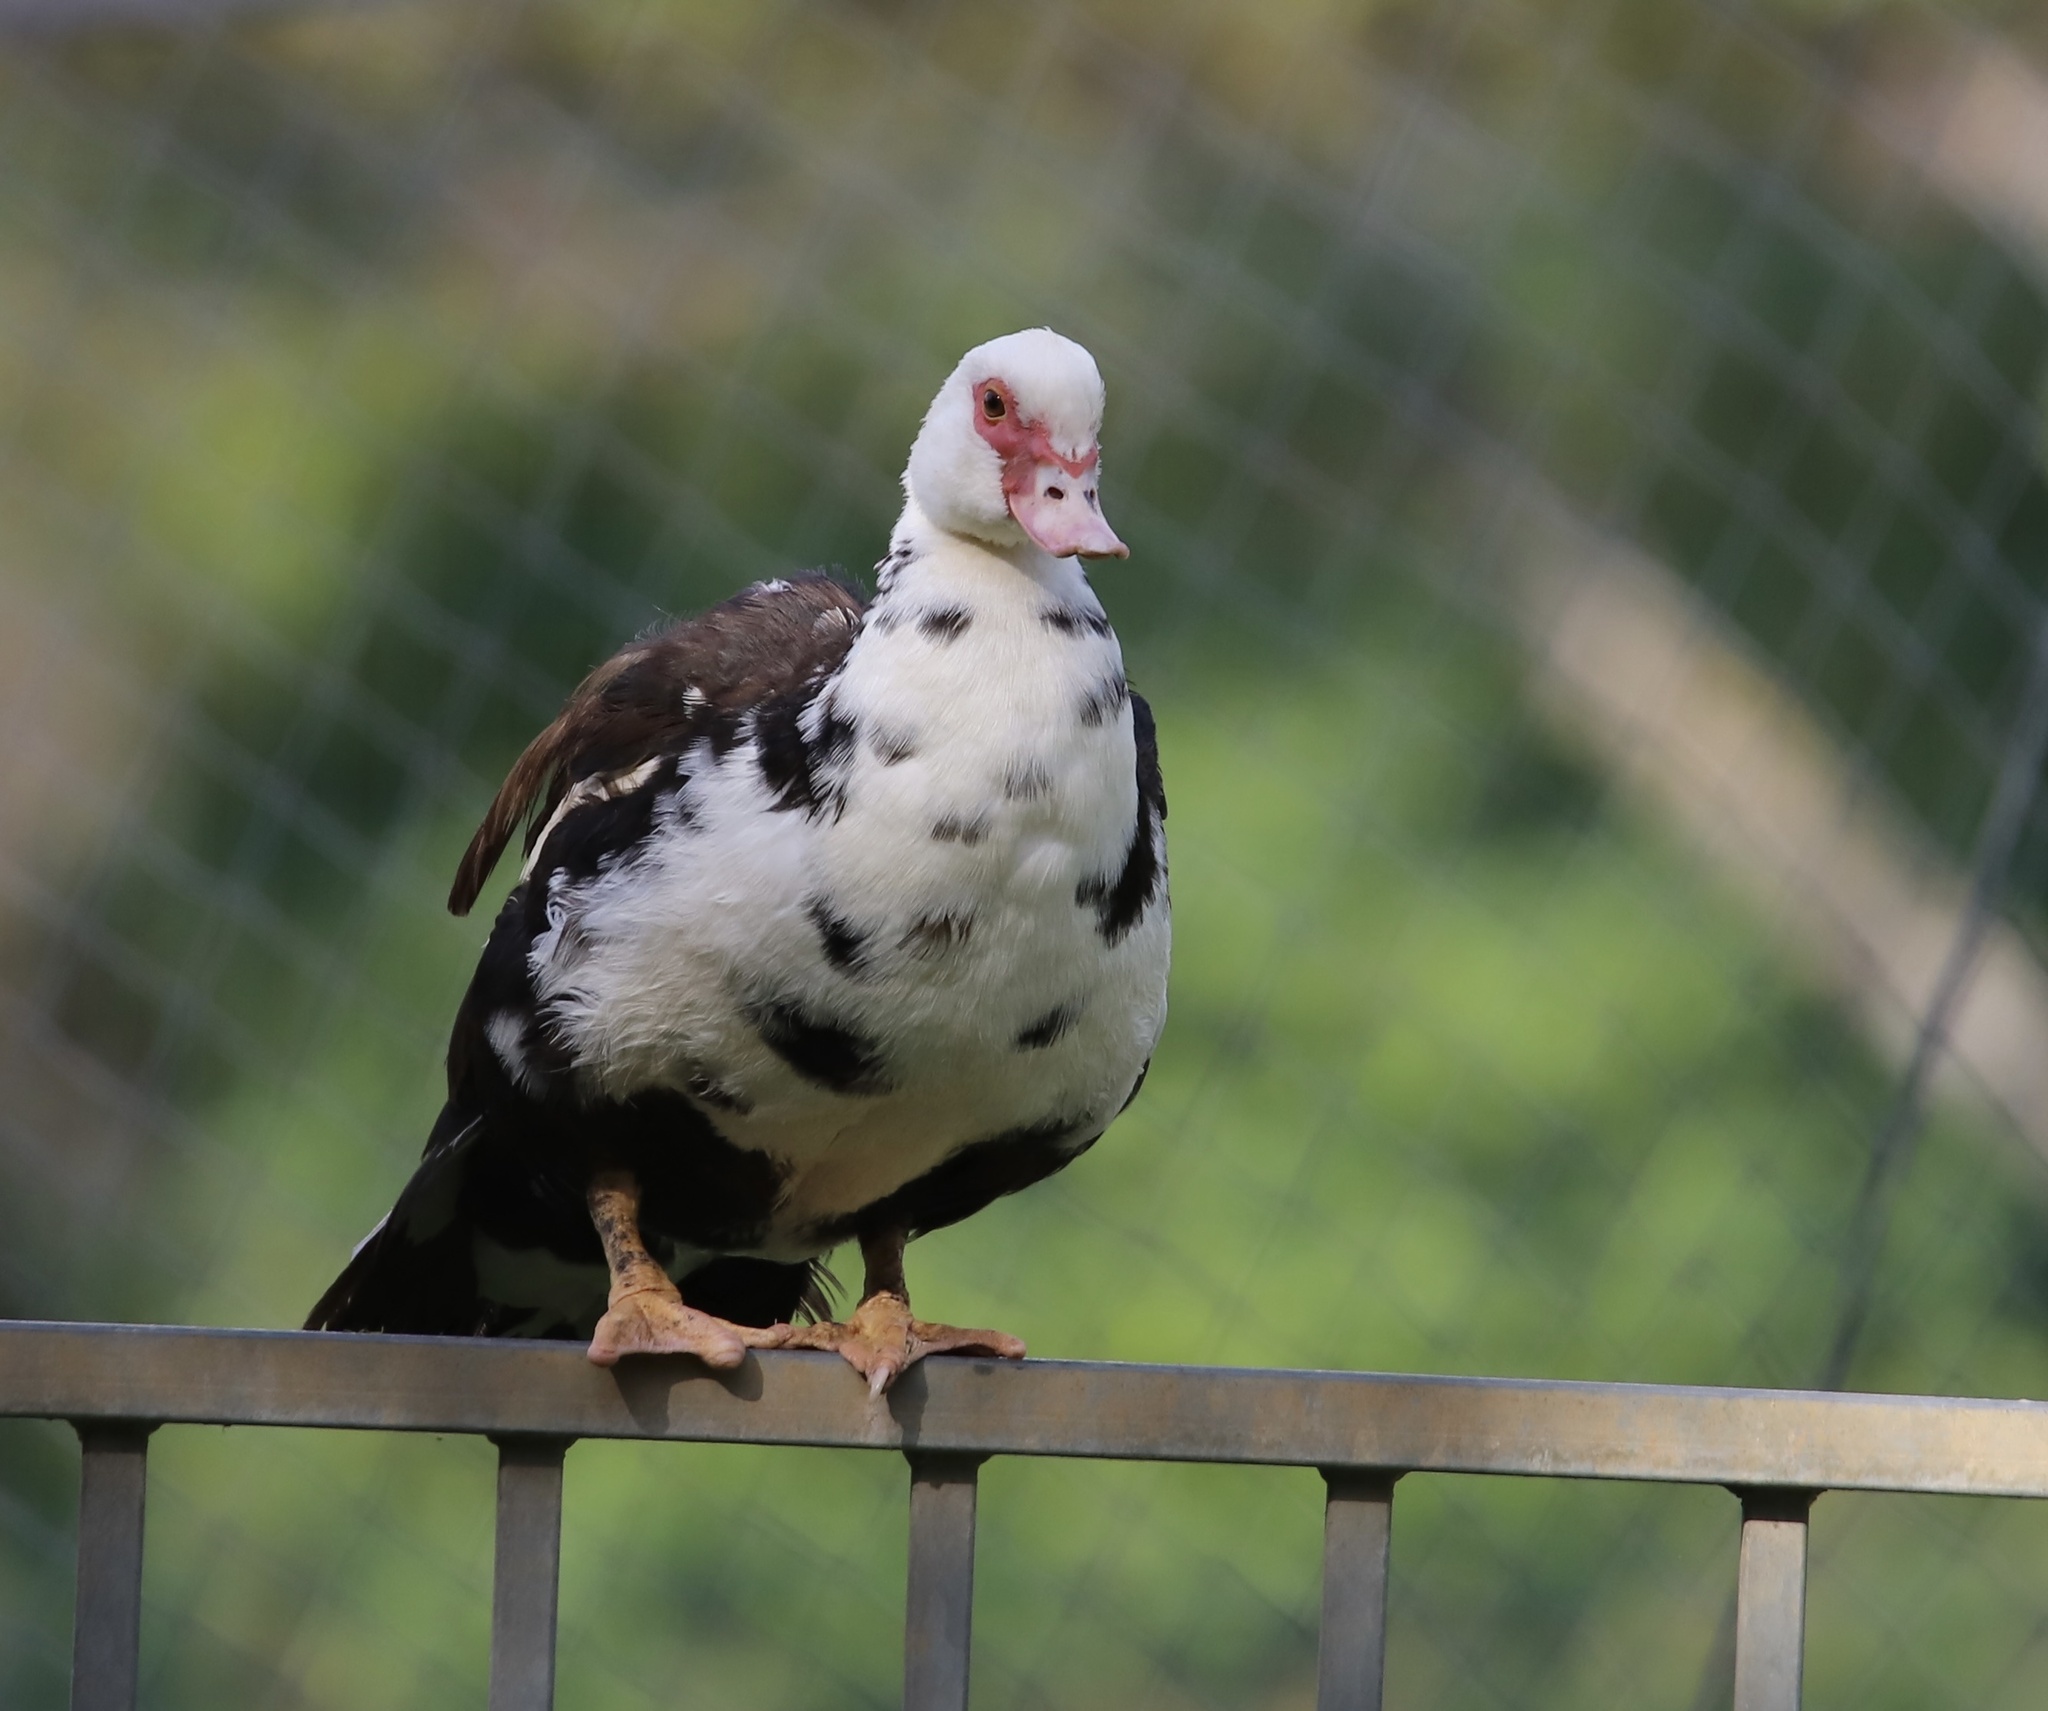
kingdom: Animalia
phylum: Chordata
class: Aves
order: Anseriformes
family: Anatidae
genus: Cairina
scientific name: Cairina moschata
